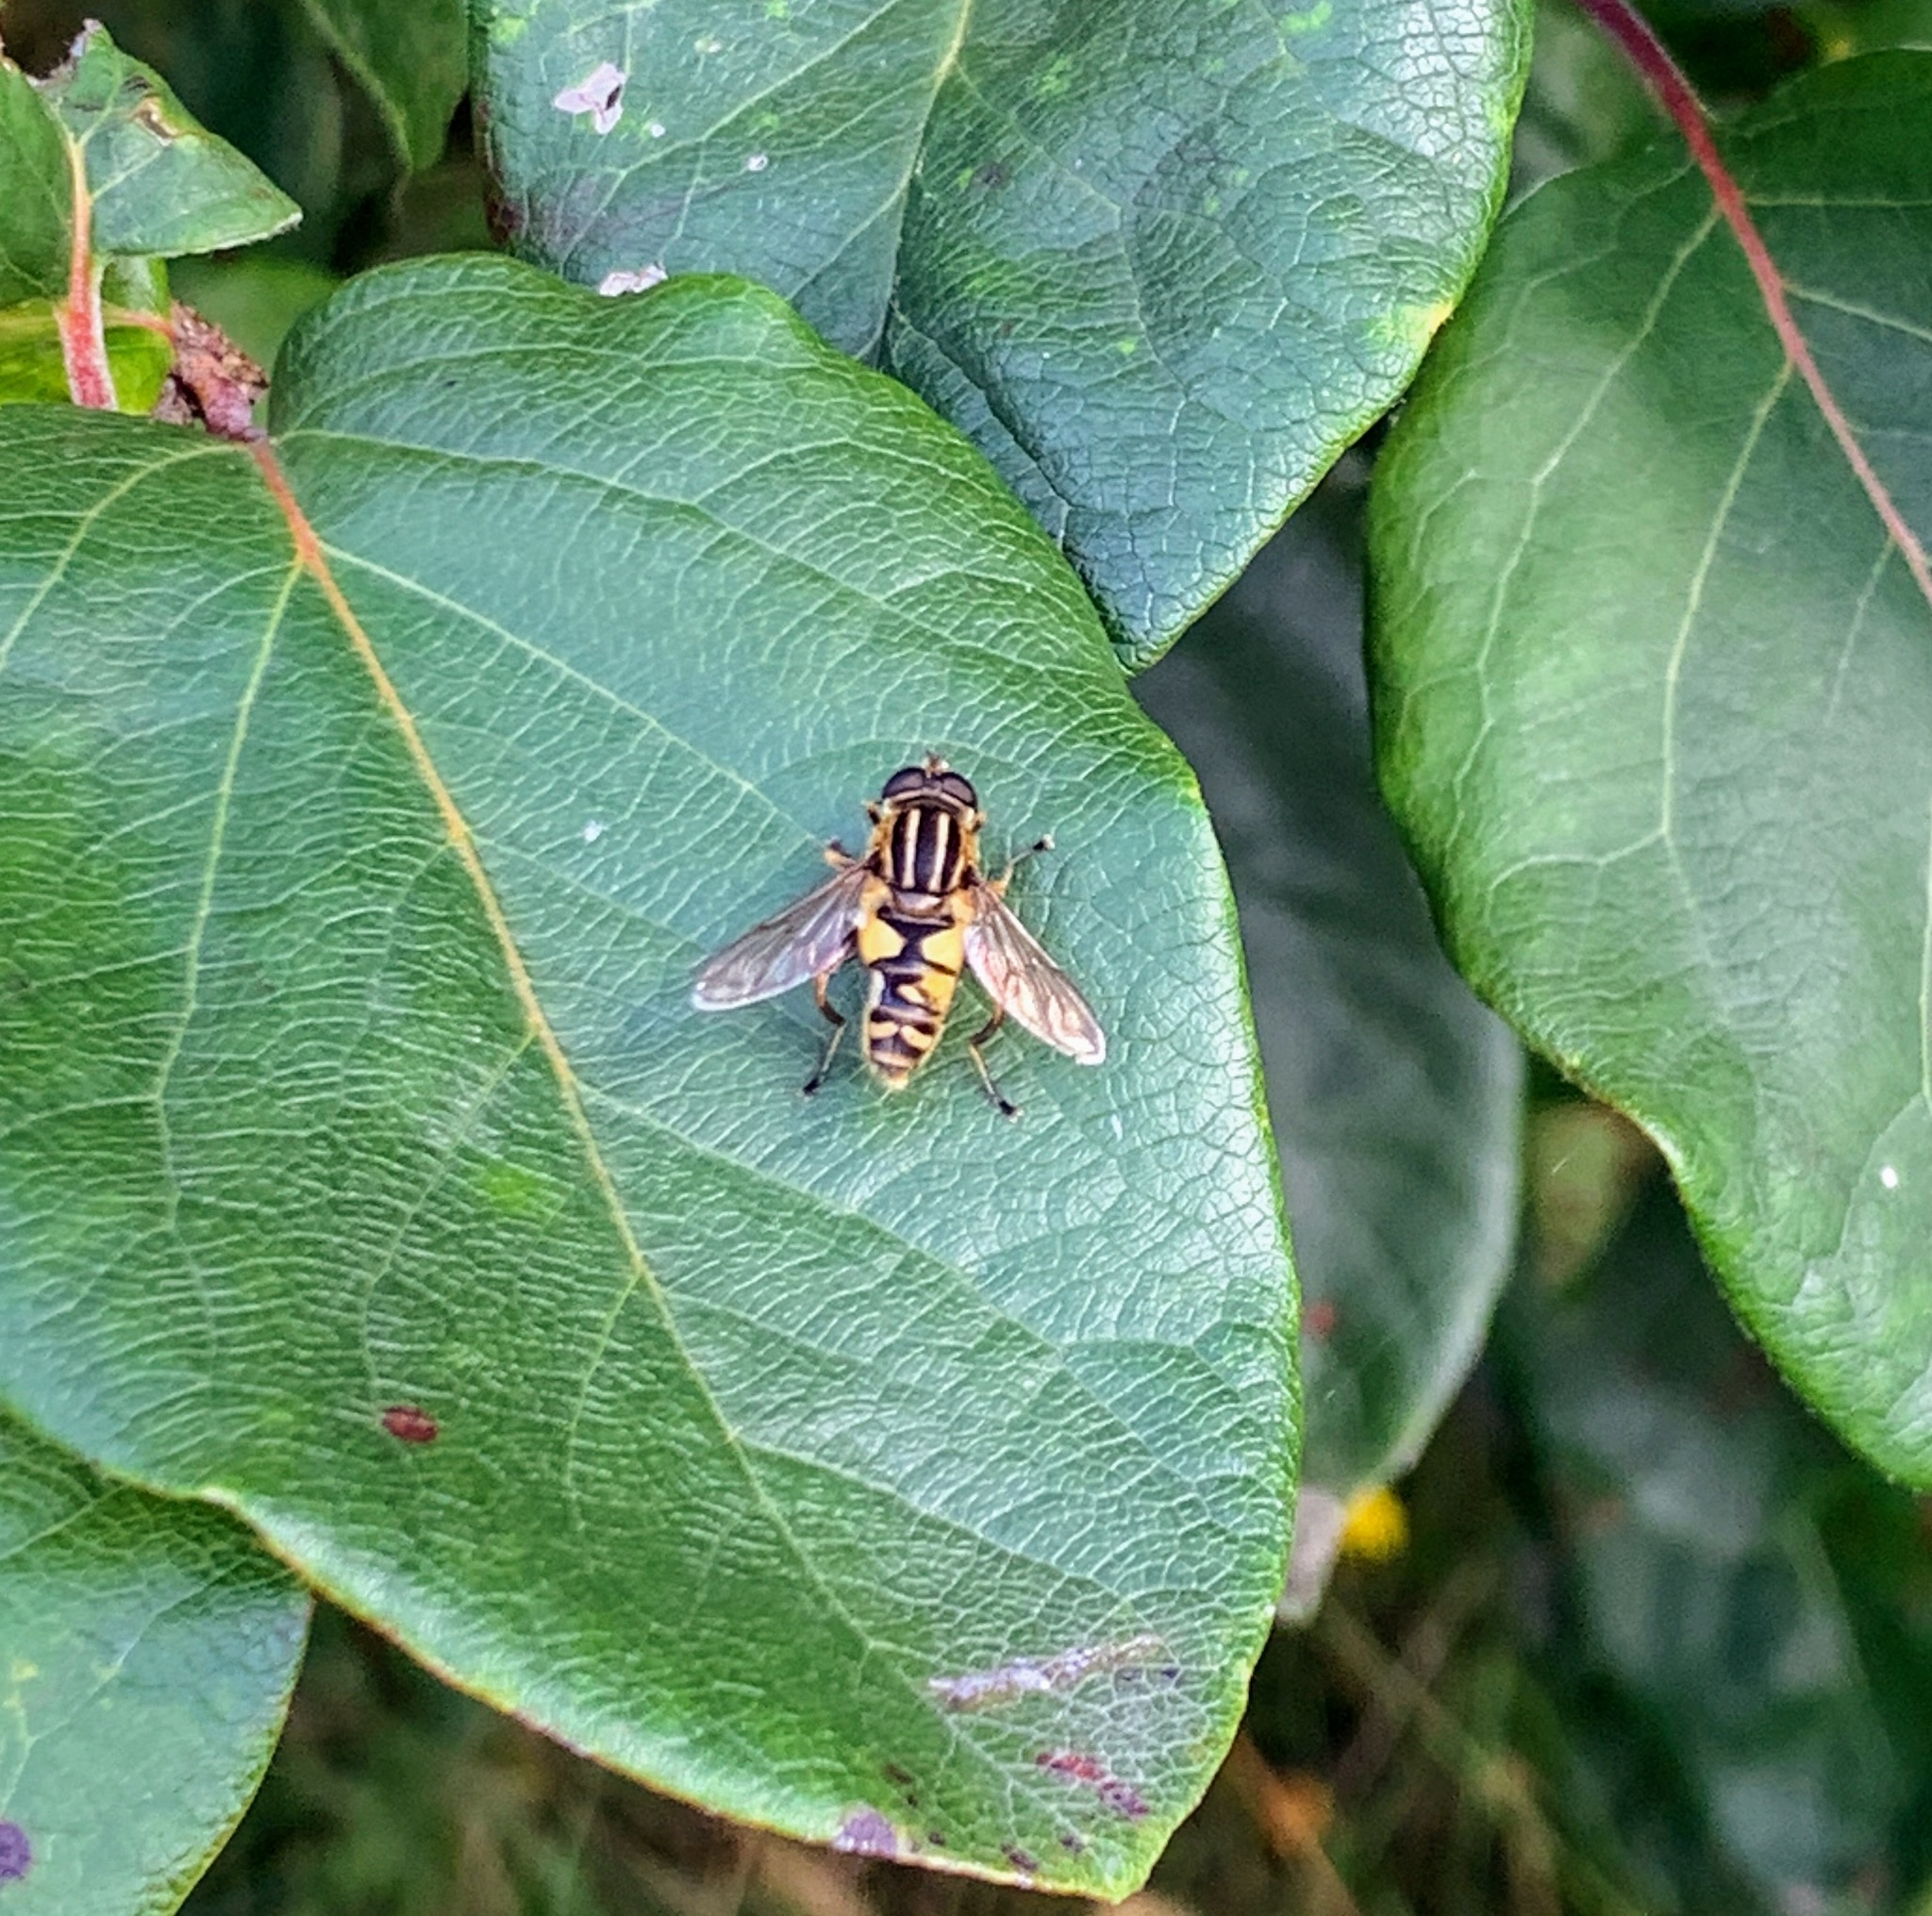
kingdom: Animalia
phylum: Arthropoda
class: Insecta
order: Diptera
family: Syrphidae
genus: Helophilus
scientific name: Helophilus pendulus
